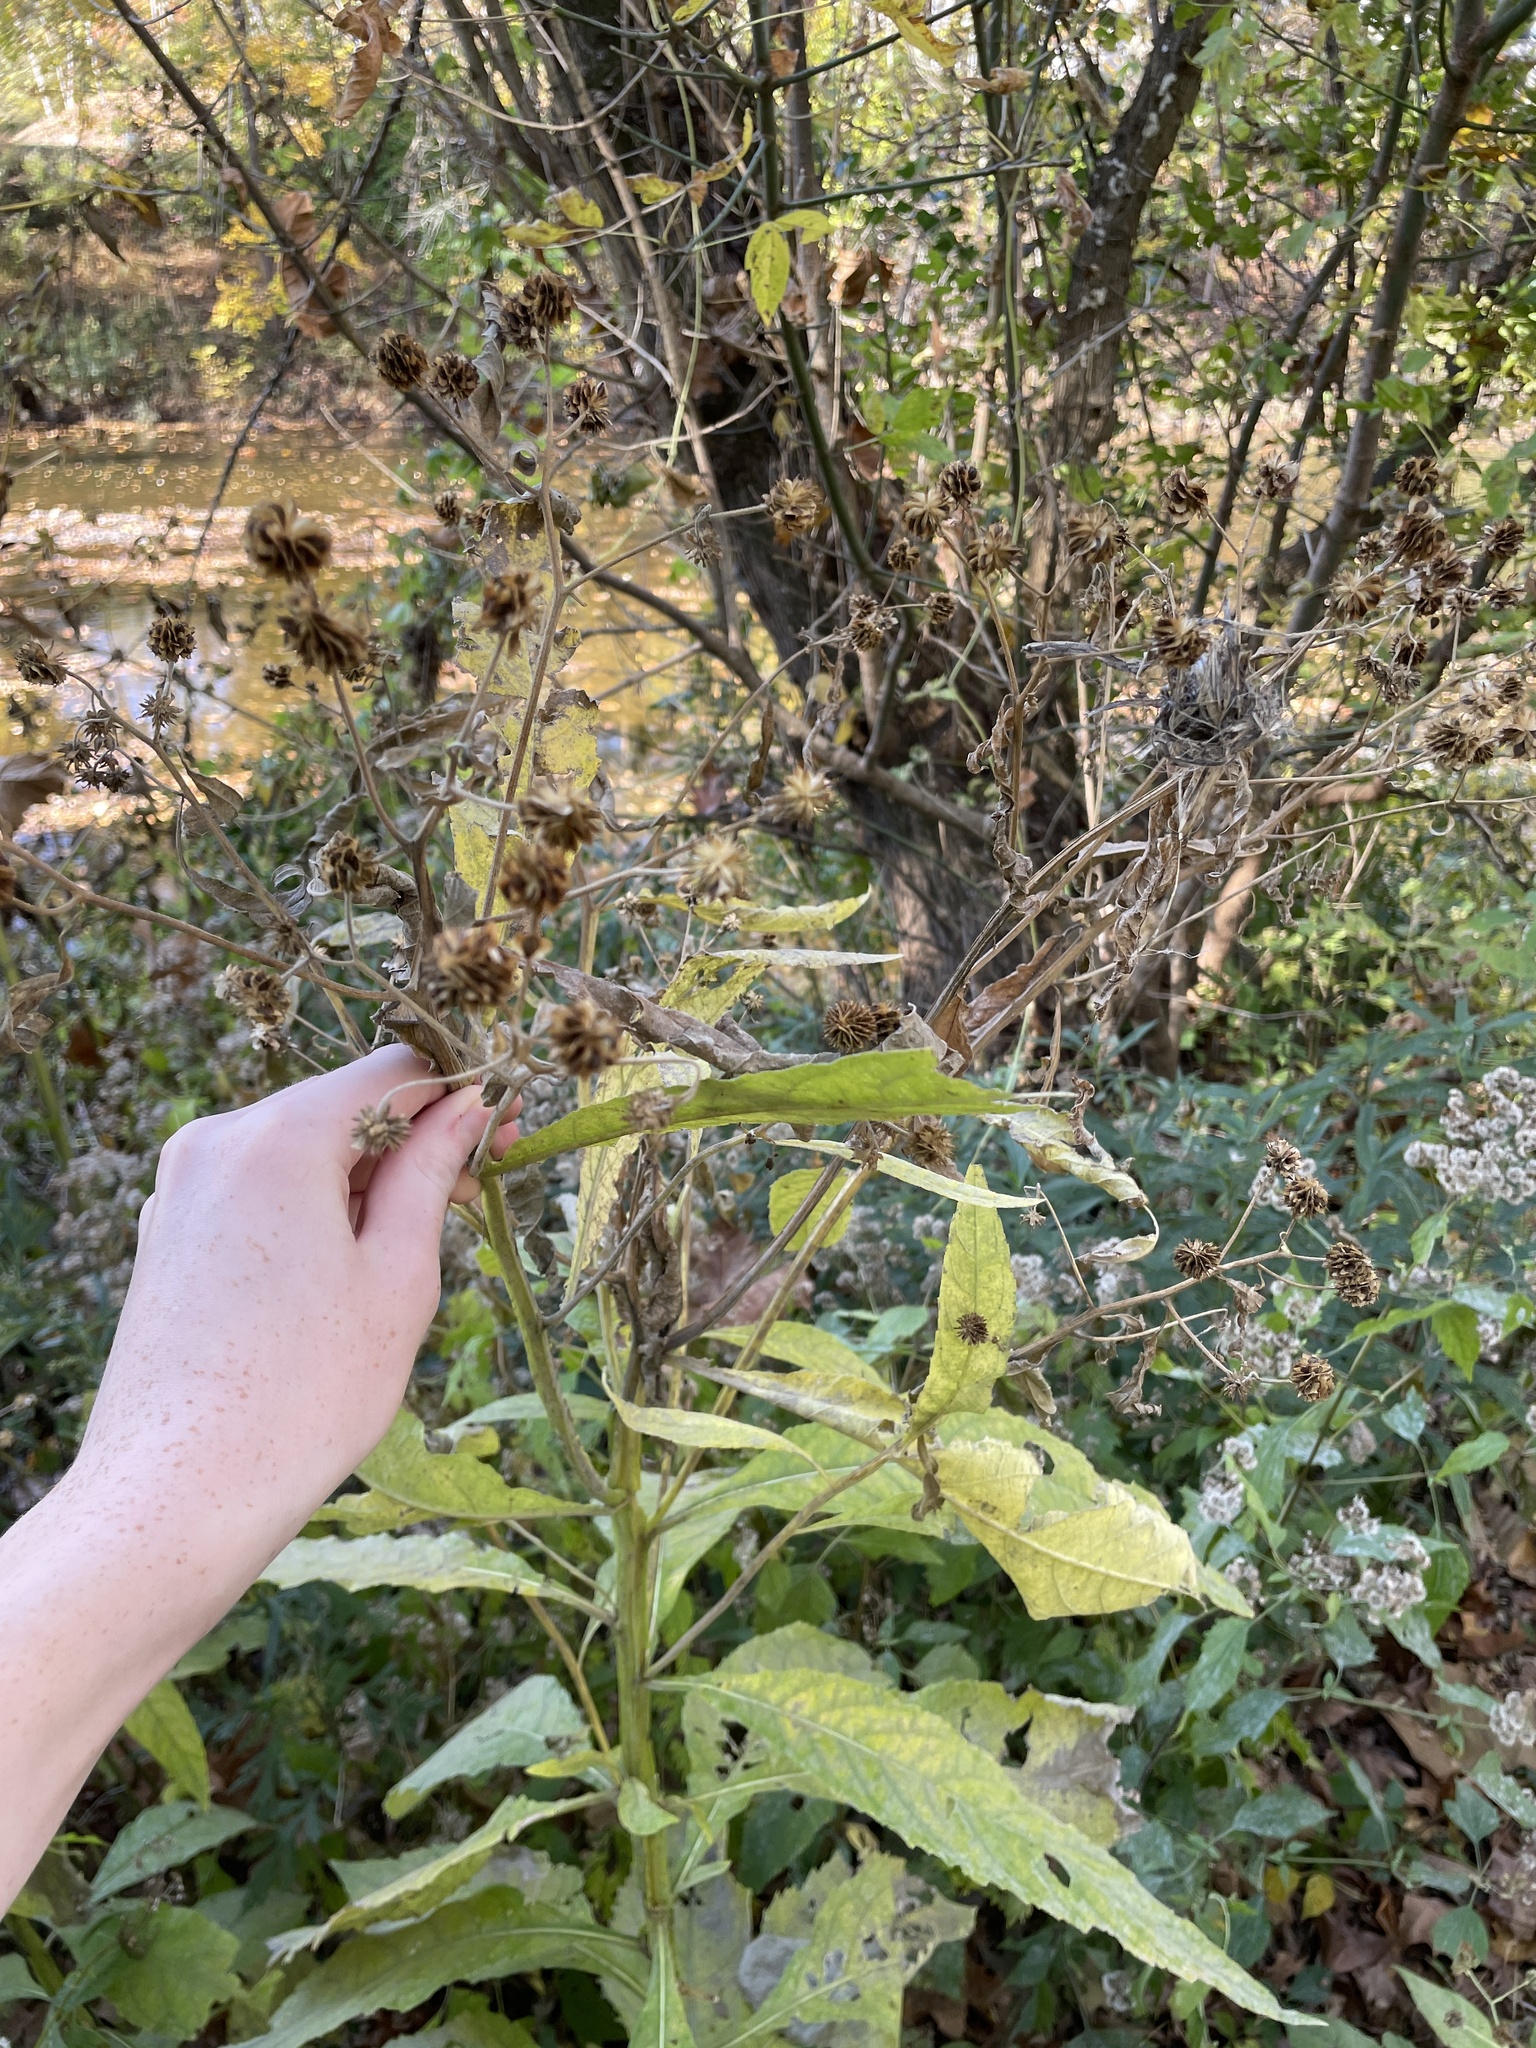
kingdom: Plantae
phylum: Tracheophyta
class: Magnoliopsida
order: Asterales
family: Asteraceae
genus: Verbesina
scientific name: Verbesina alternifolia
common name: Wingstem
